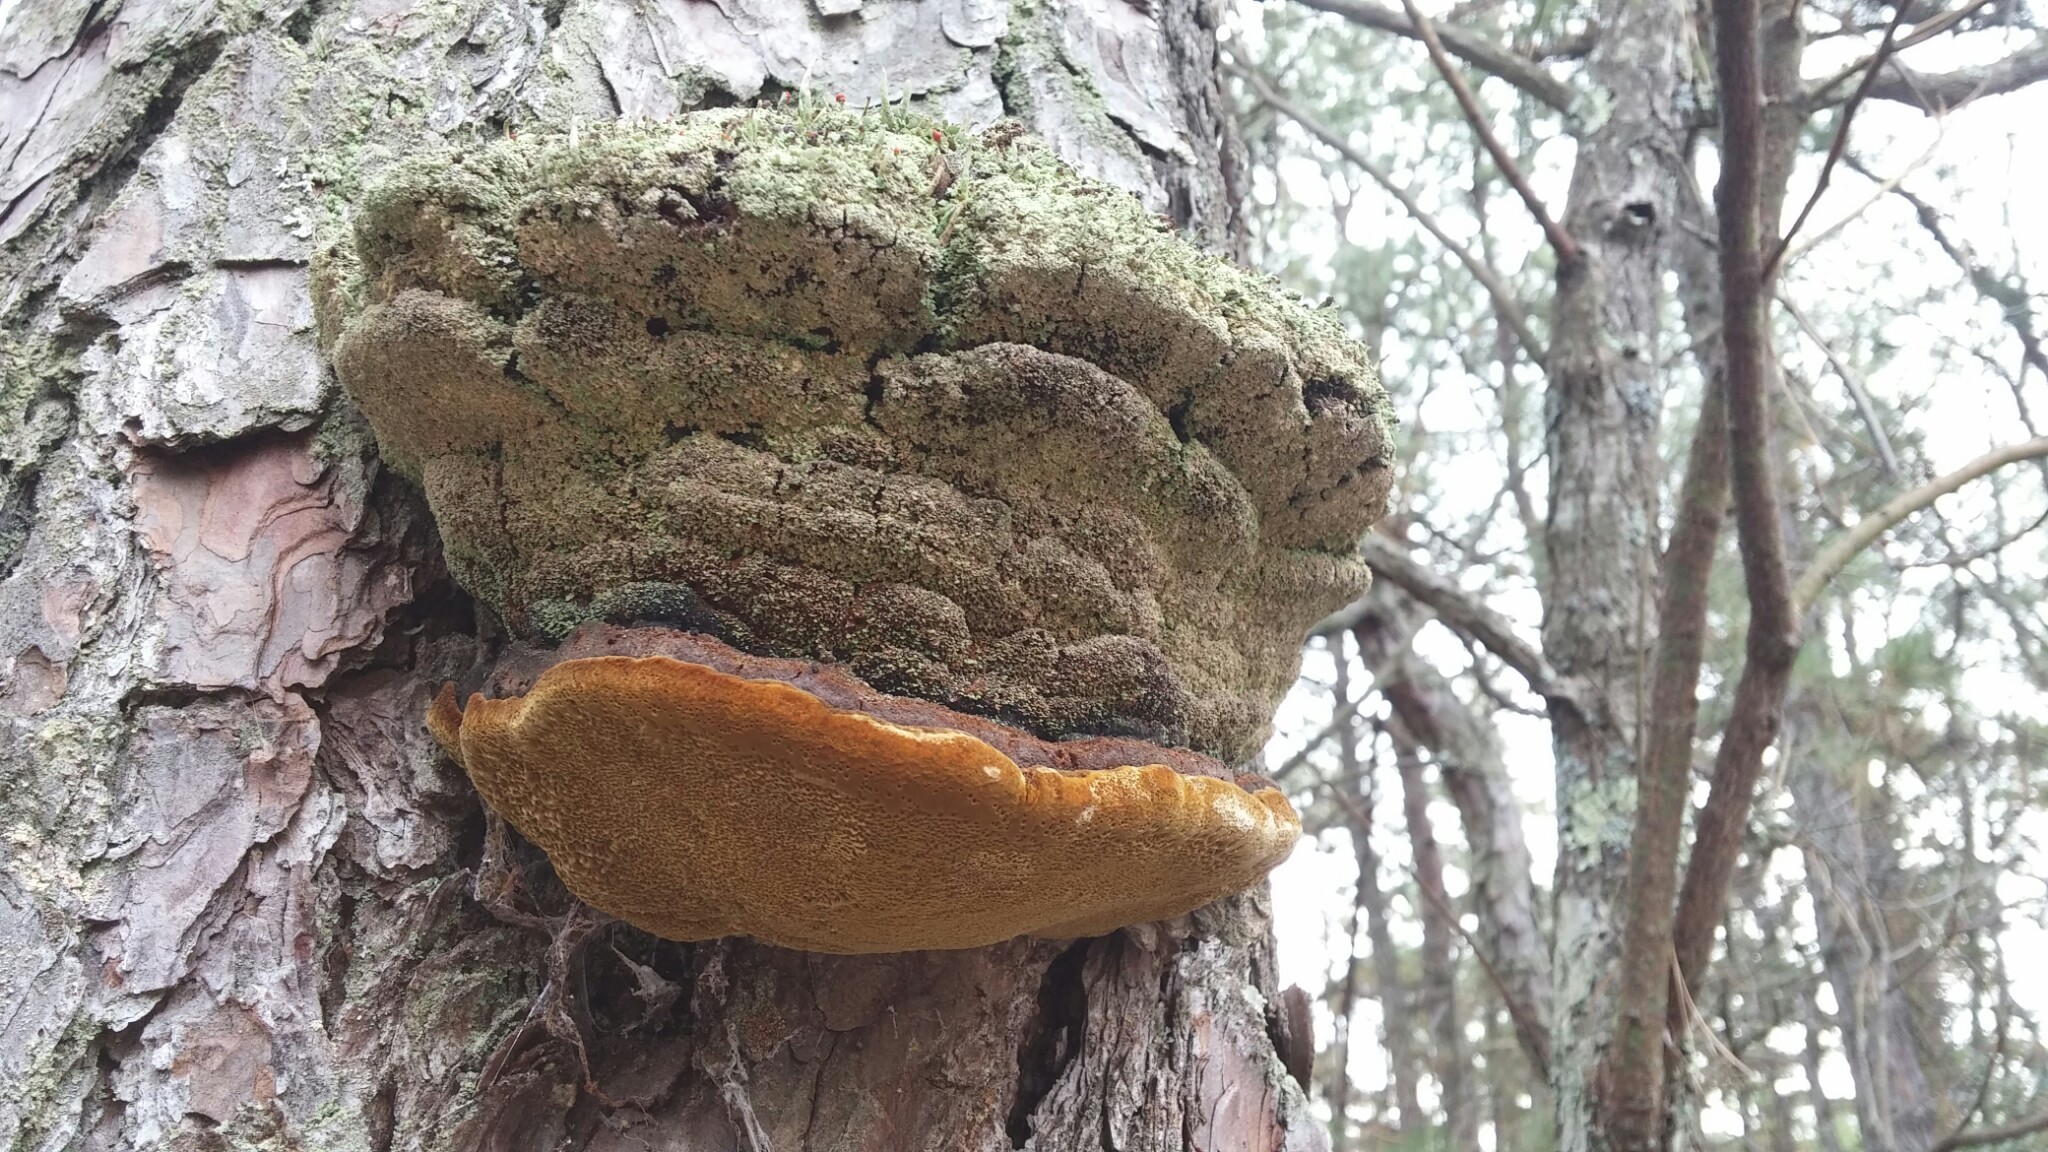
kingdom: Fungi
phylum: Basidiomycota
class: Agaricomycetes
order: Hymenochaetales
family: Hymenochaetaceae
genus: Porodaedalea
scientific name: Porodaedalea pini
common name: Pine bracket
